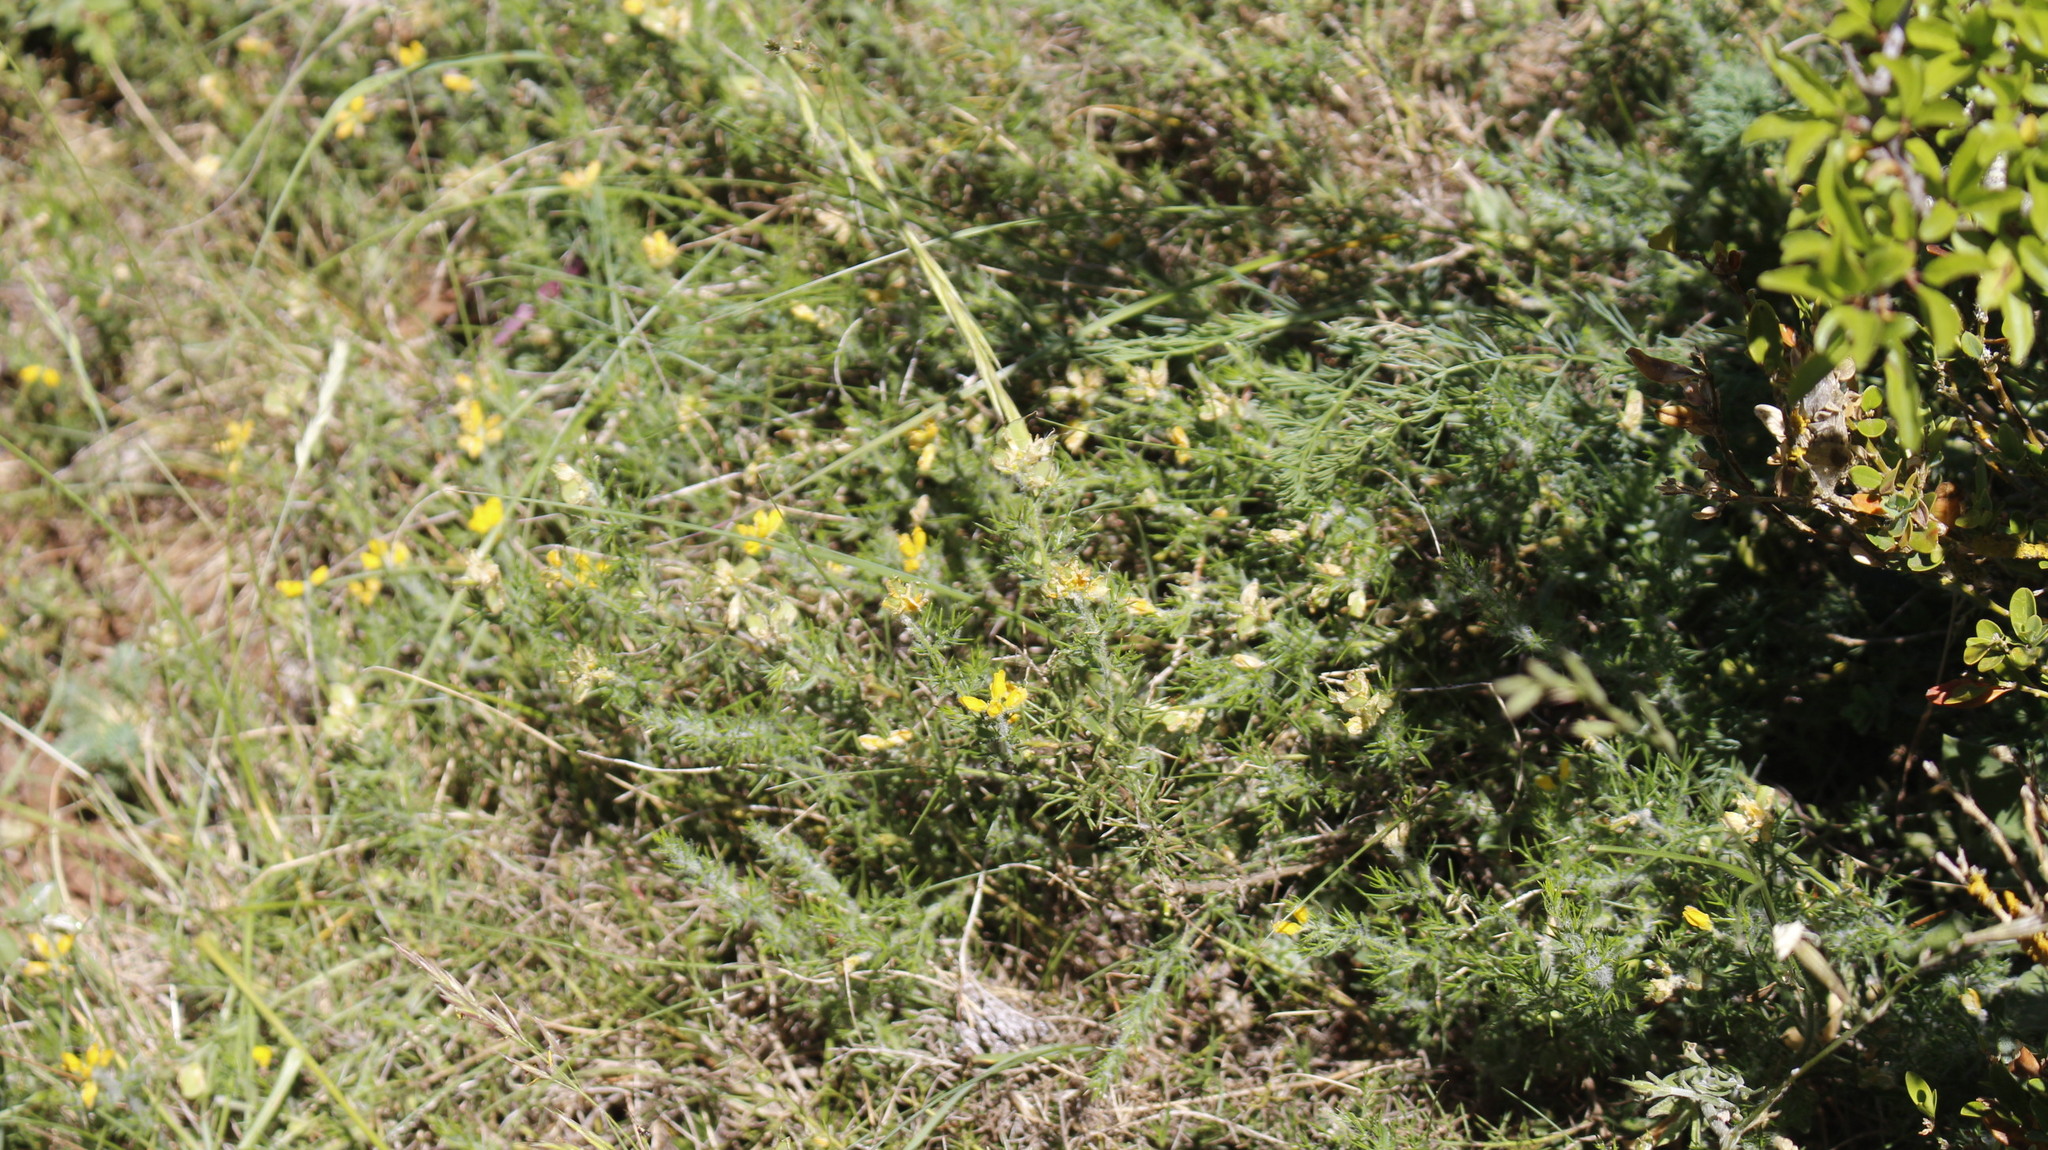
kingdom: Plantae
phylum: Tracheophyta
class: Magnoliopsida
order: Fabales
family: Fabaceae
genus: Genista
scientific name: Genista hispanica
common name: Spanish gorse
